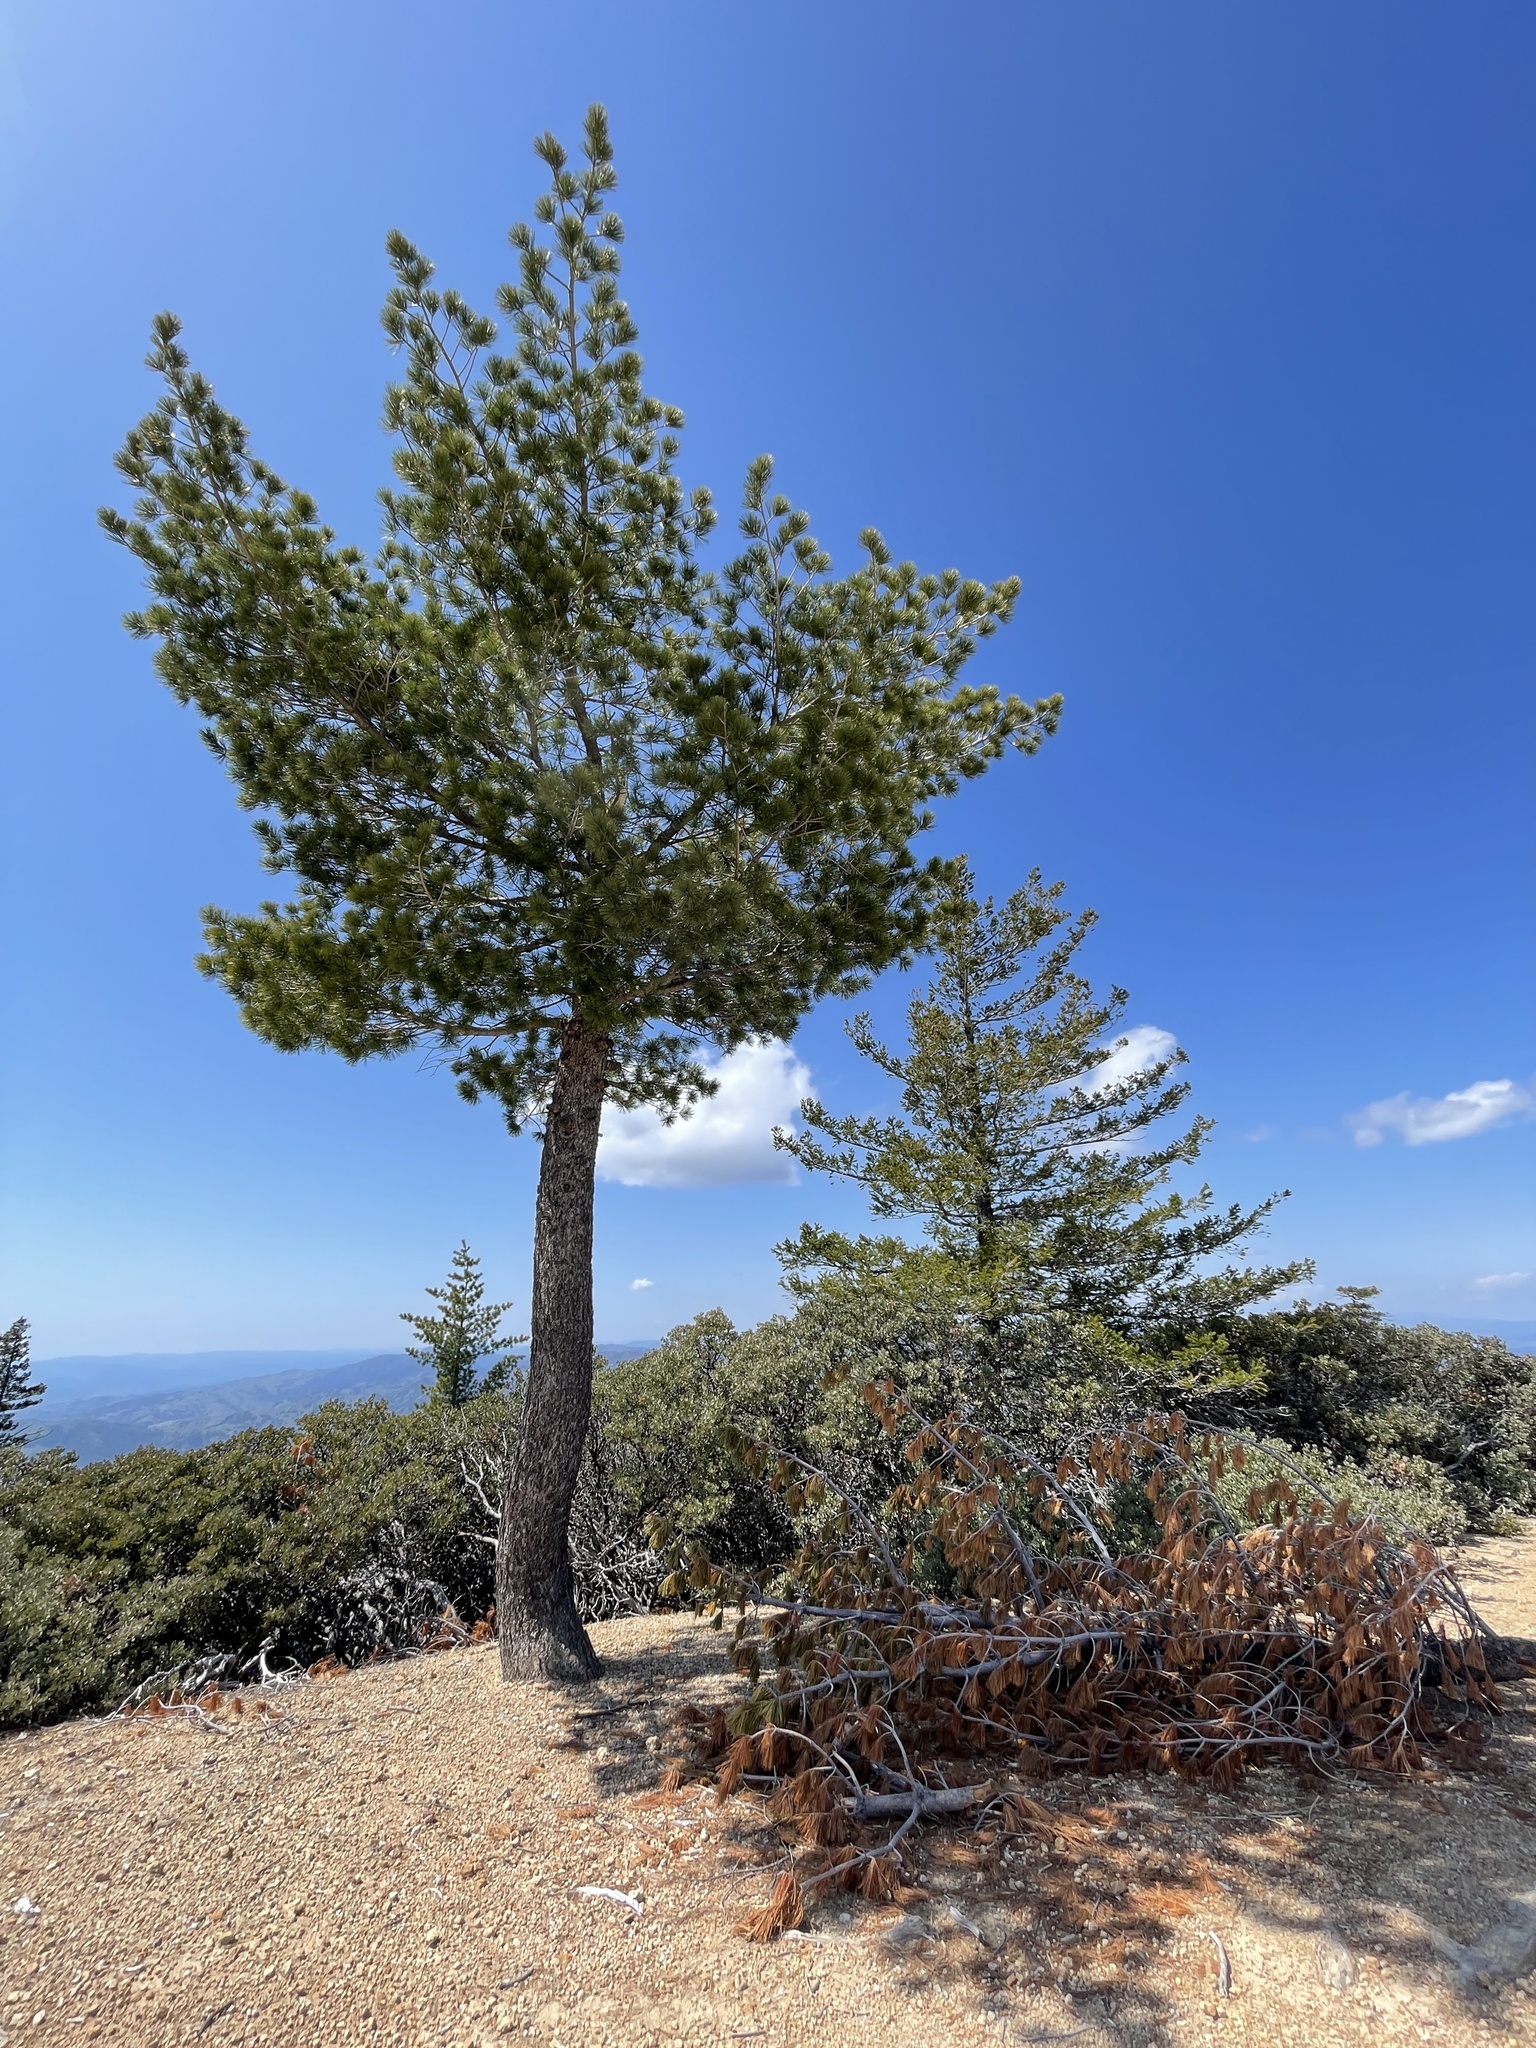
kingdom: Plantae
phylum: Tracheophyta
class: Pinopsida
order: Pinales
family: Pinaceae
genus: Pinus
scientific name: Pinus lambertiana
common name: Sugar pine
